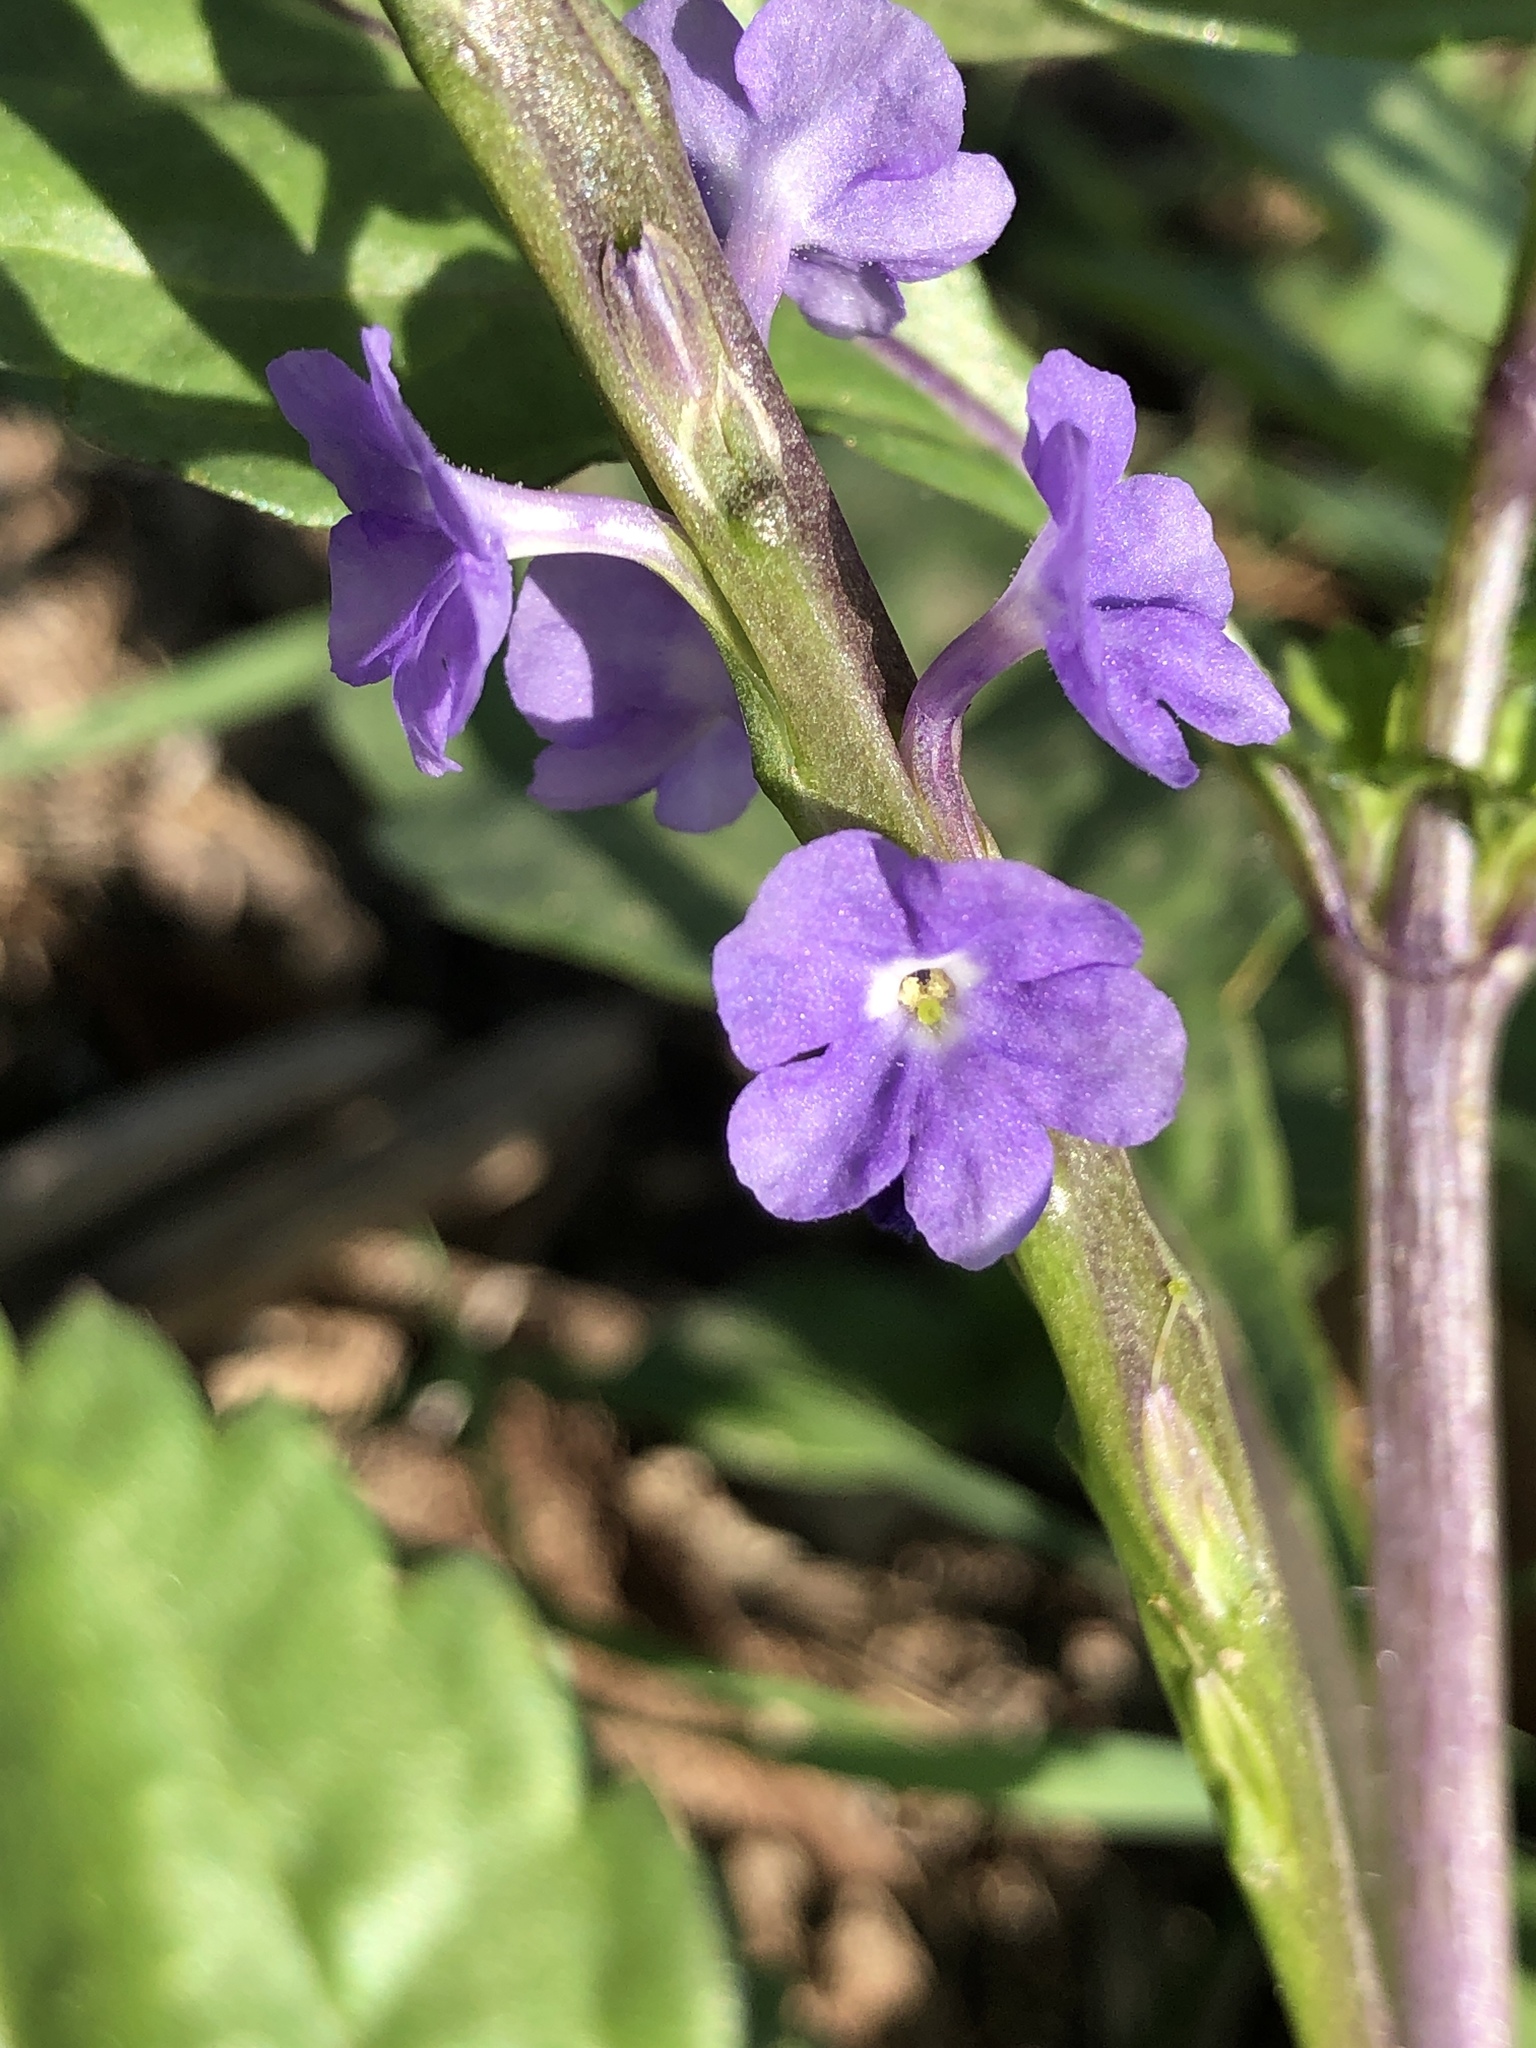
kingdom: Plantae
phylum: Tracheophyta
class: Magnoliopsida
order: Lamiales
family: Verbenaceae
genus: Stachytarpheta
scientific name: Stachytarpheta jamaicensis
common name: Light-blue snakeweed
